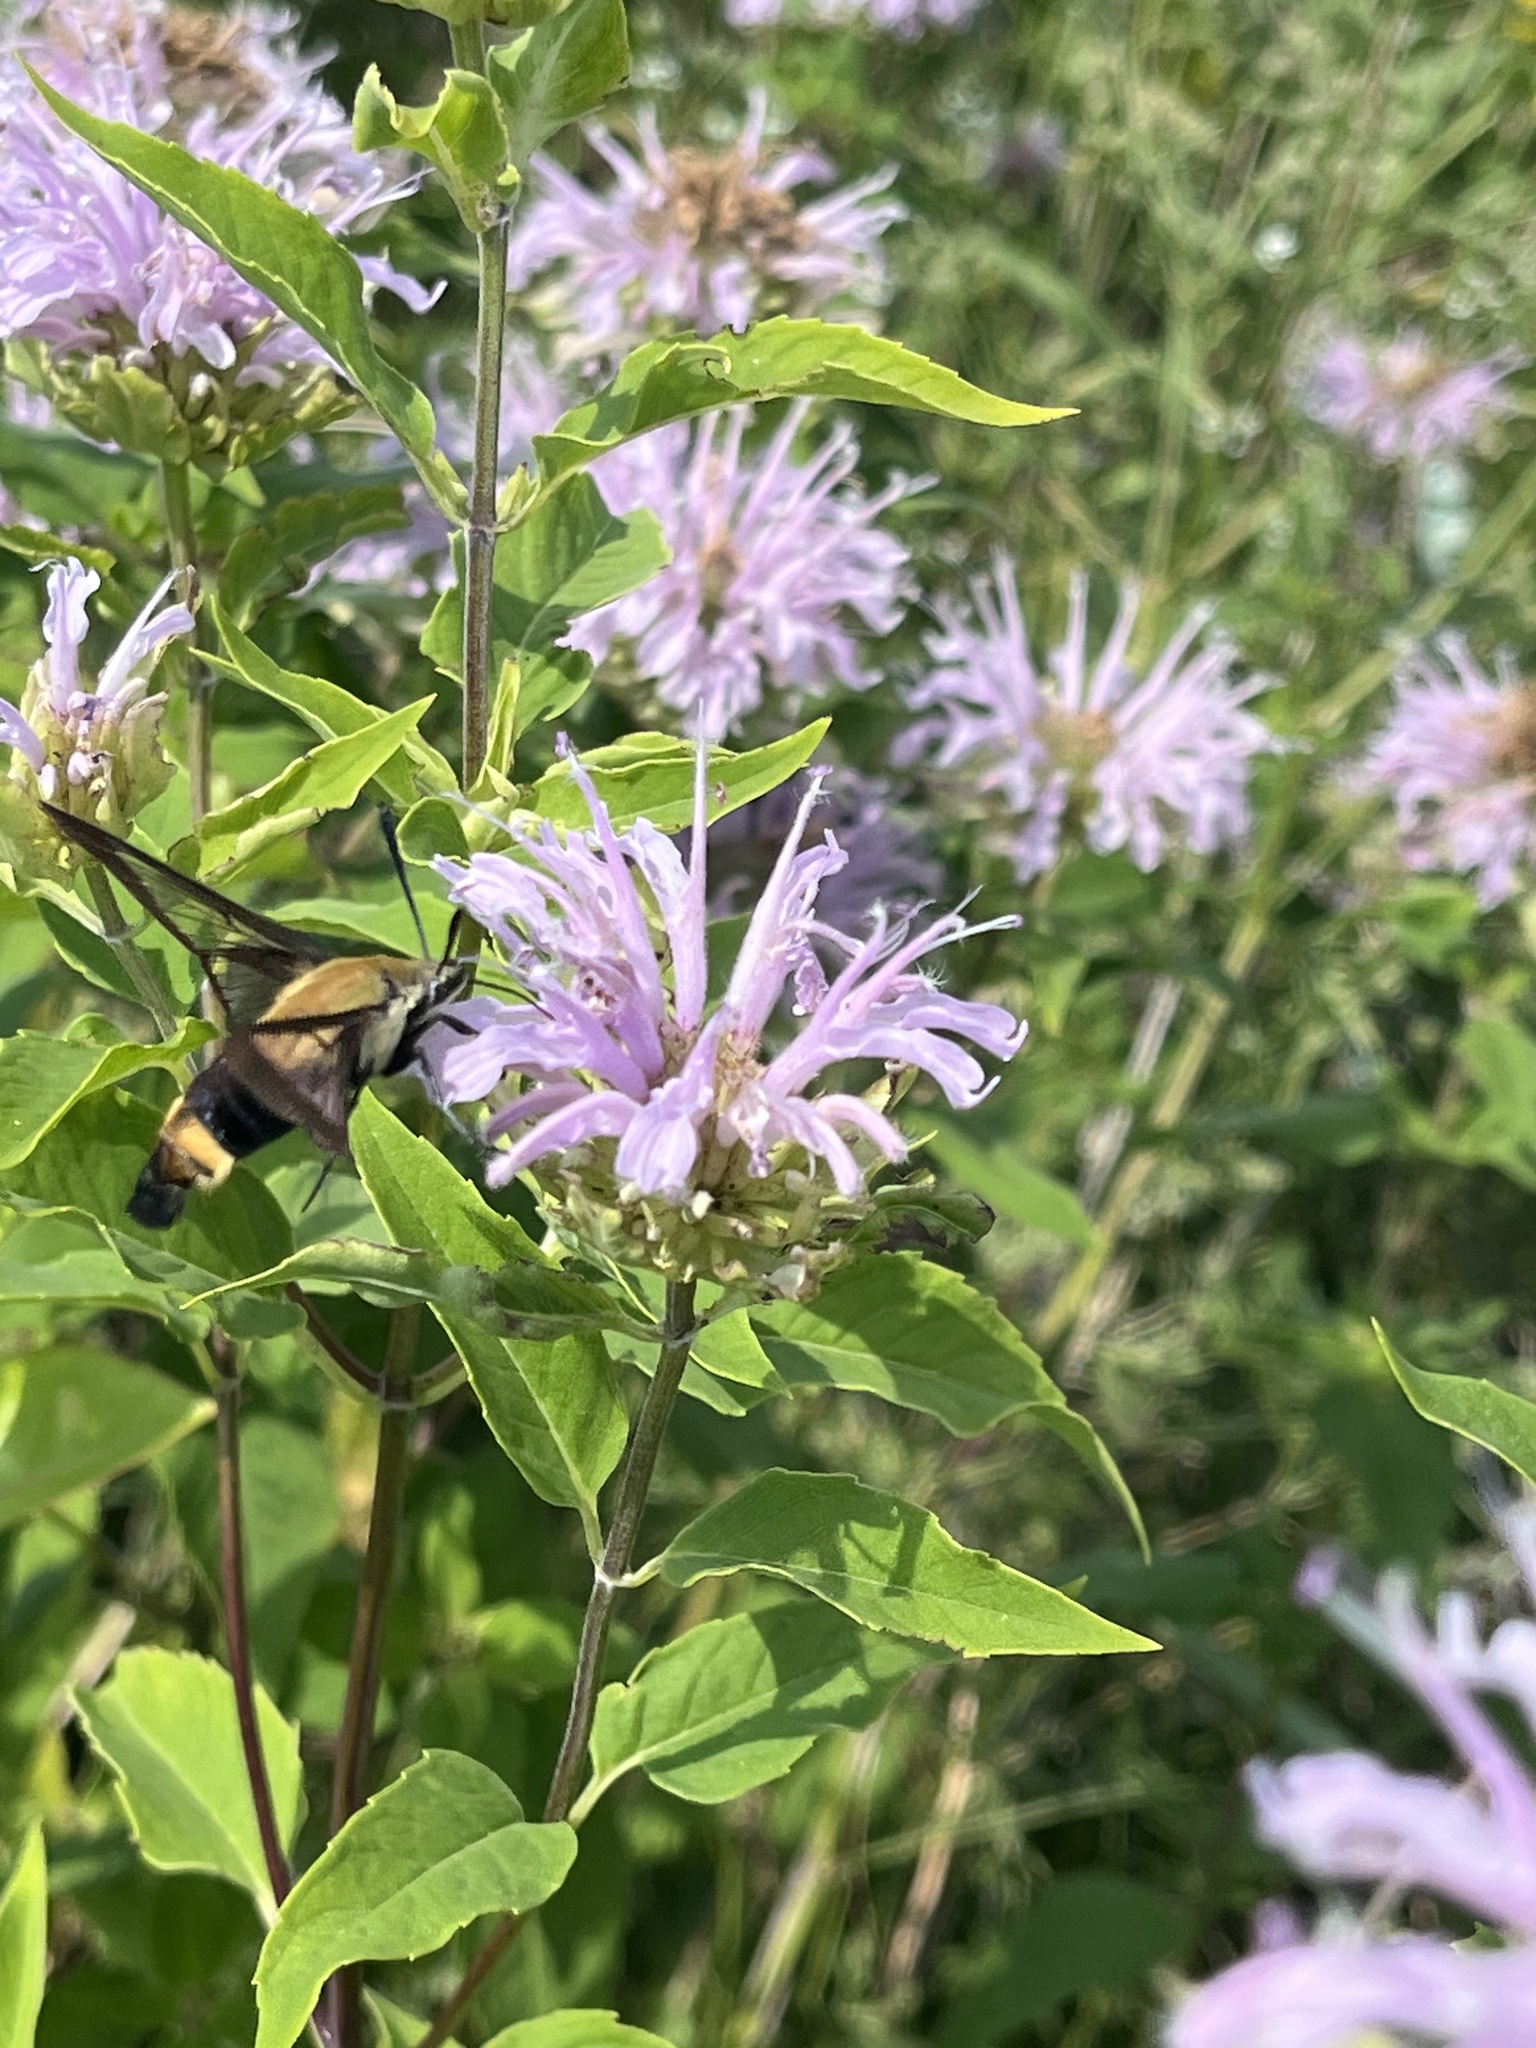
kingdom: Animalia
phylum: Arthropoda
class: Insecta
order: Lepidoptera
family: Sphingidae
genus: Hemaris
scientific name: Hemaris diffinis
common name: Bumblebee moth
